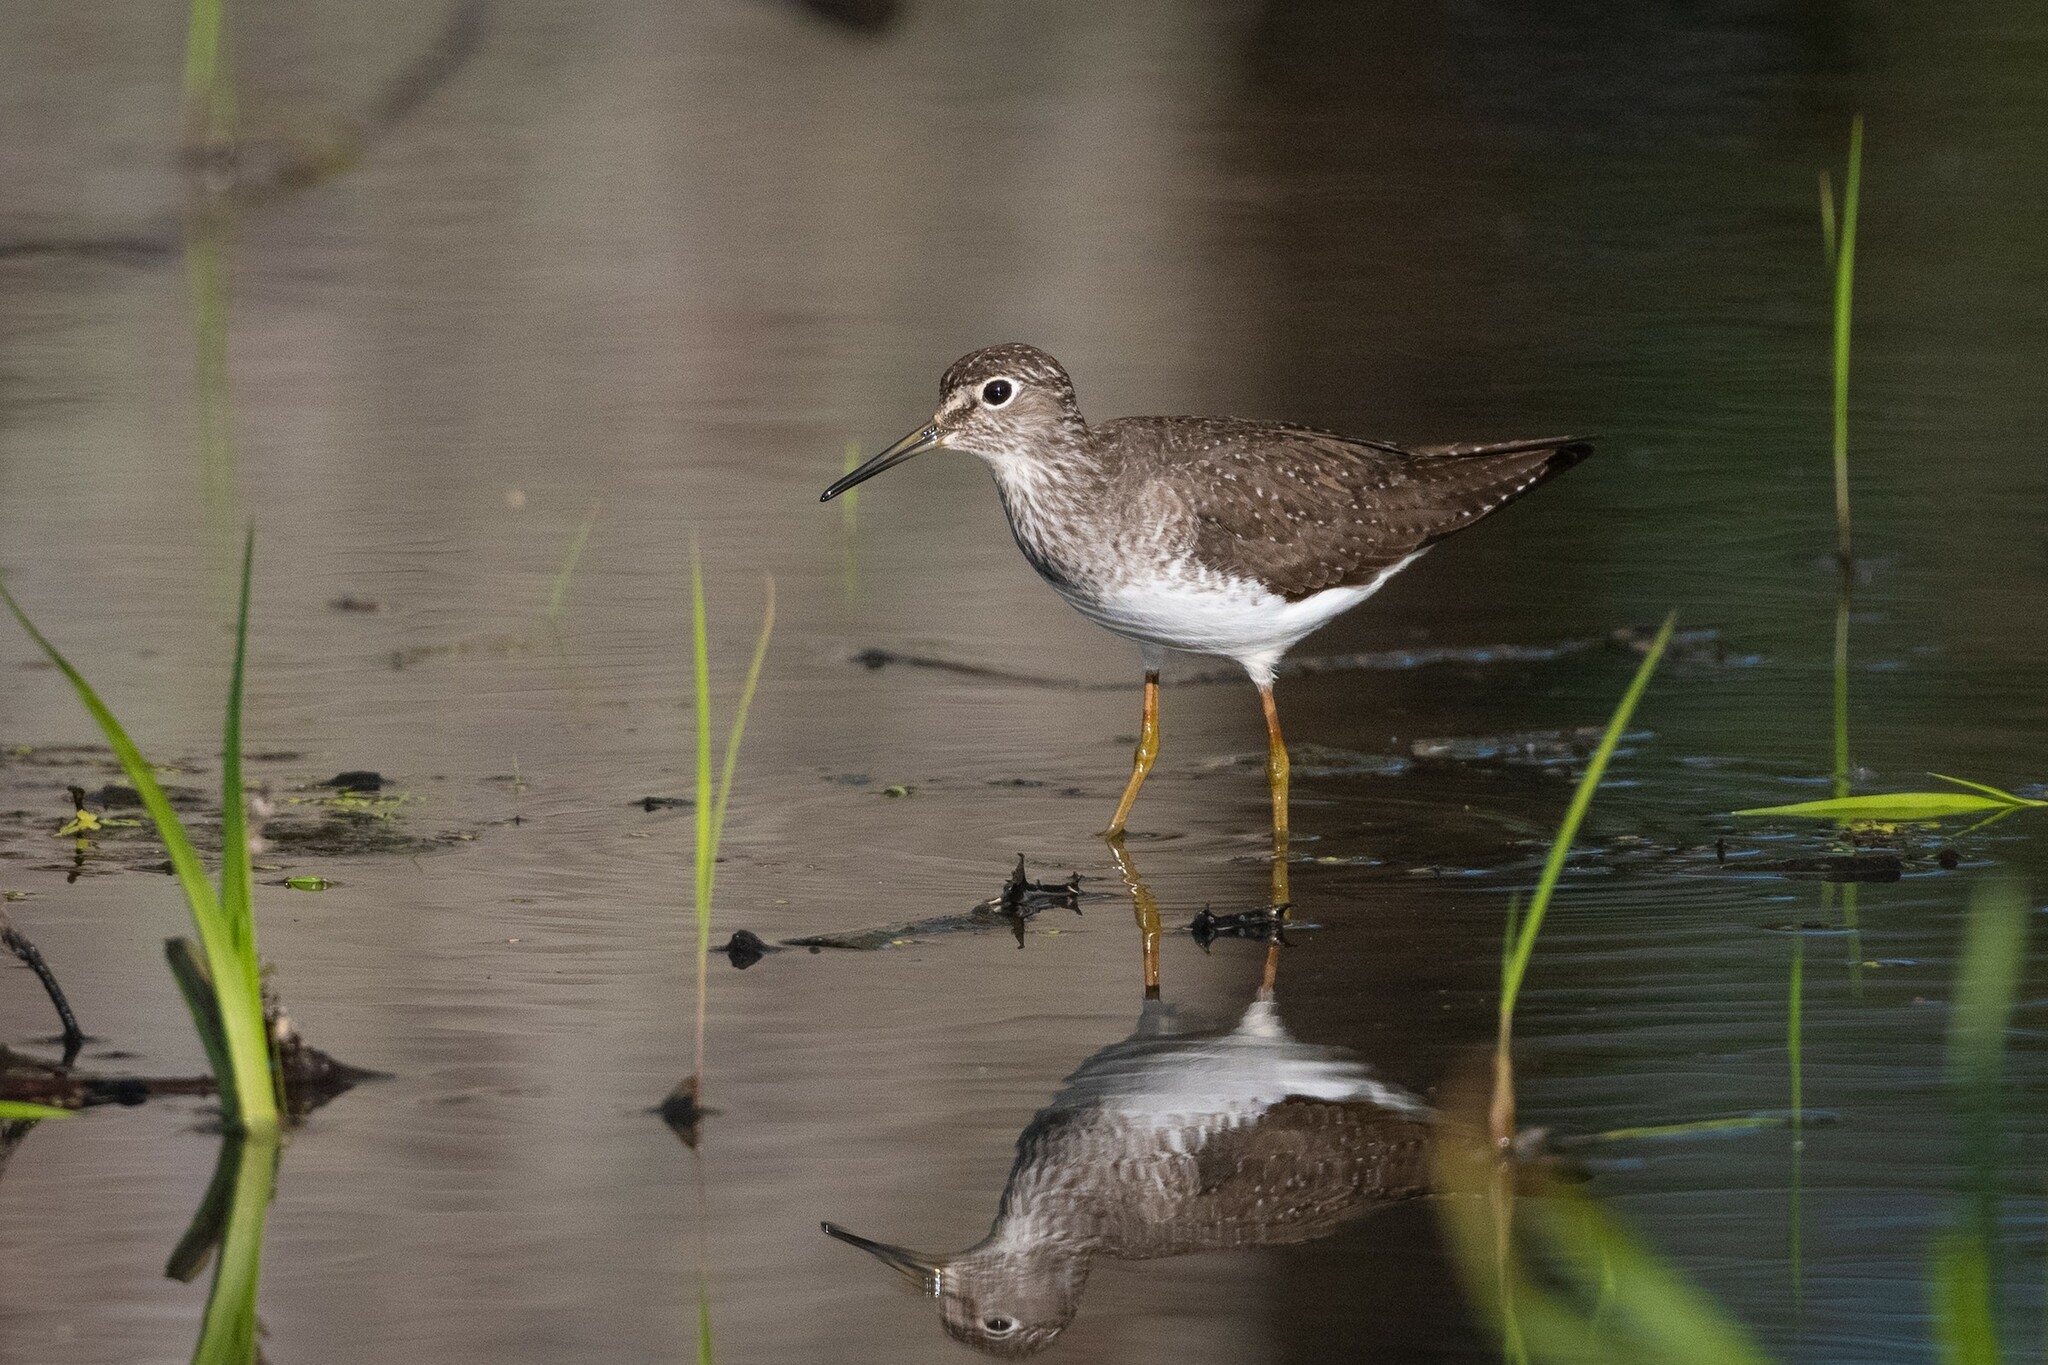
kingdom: Animalia
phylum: Chordata
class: Aves
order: Charadriiformes
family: Scolopacidae
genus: Tringa
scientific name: Tringa solitaria
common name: Solitary sandpiper
